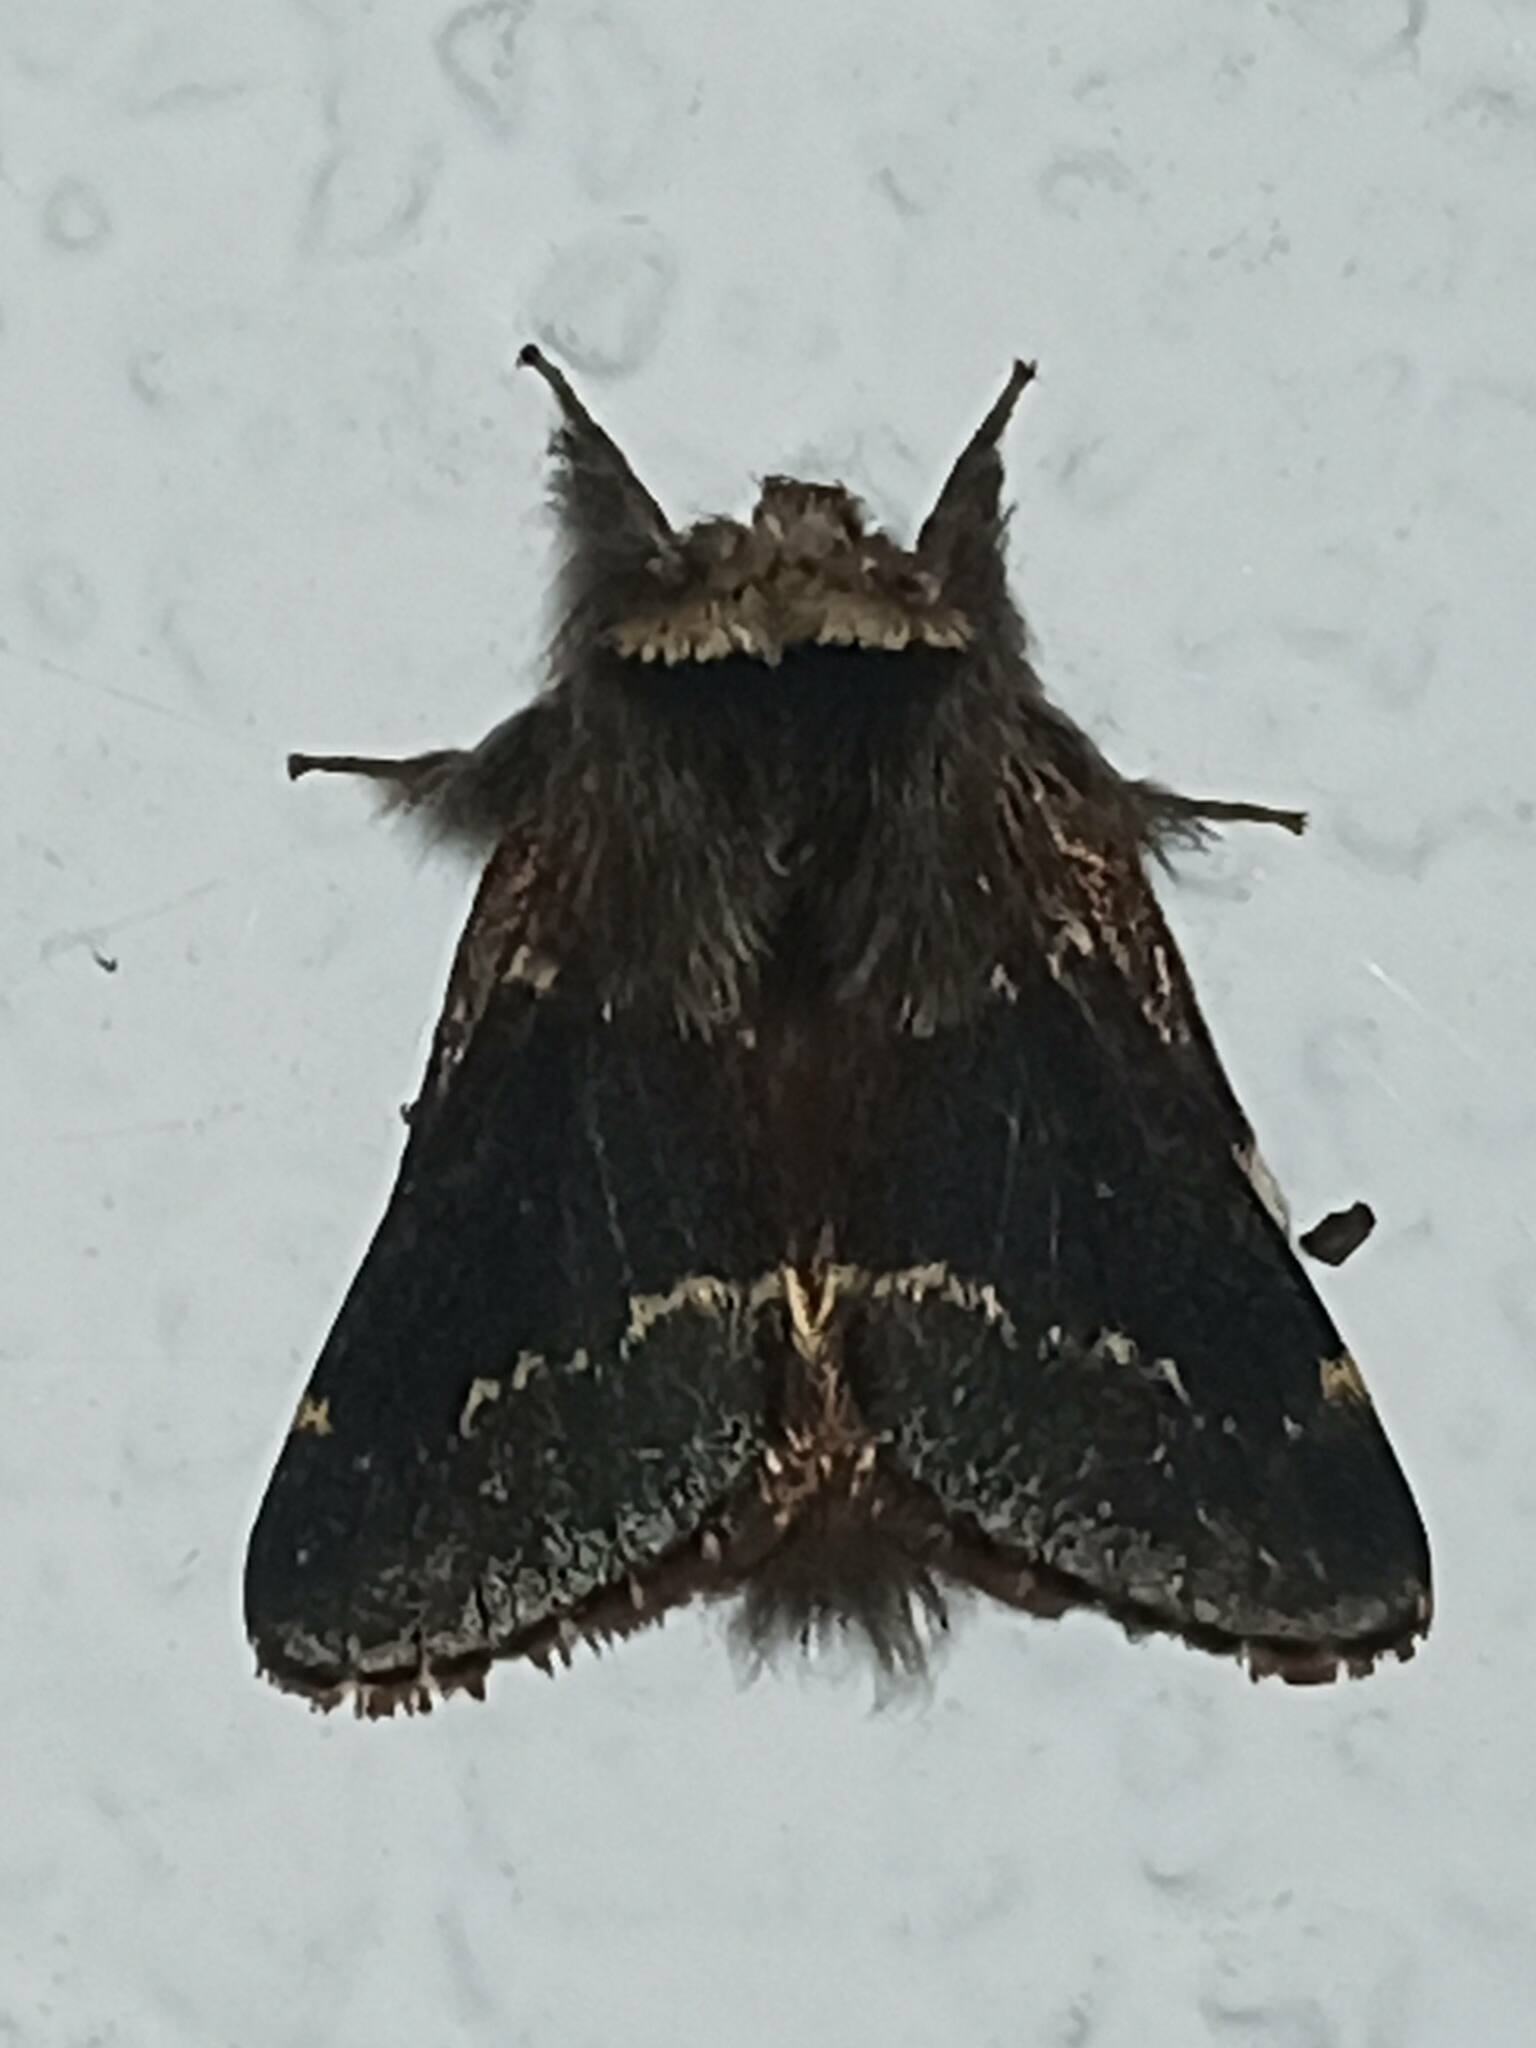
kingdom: Animalia
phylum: Arthropoda
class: Insecta
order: Lepidoptera
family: Lasiocampidae
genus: Poecilocampa
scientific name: Poecilocampa populi
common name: December moth
